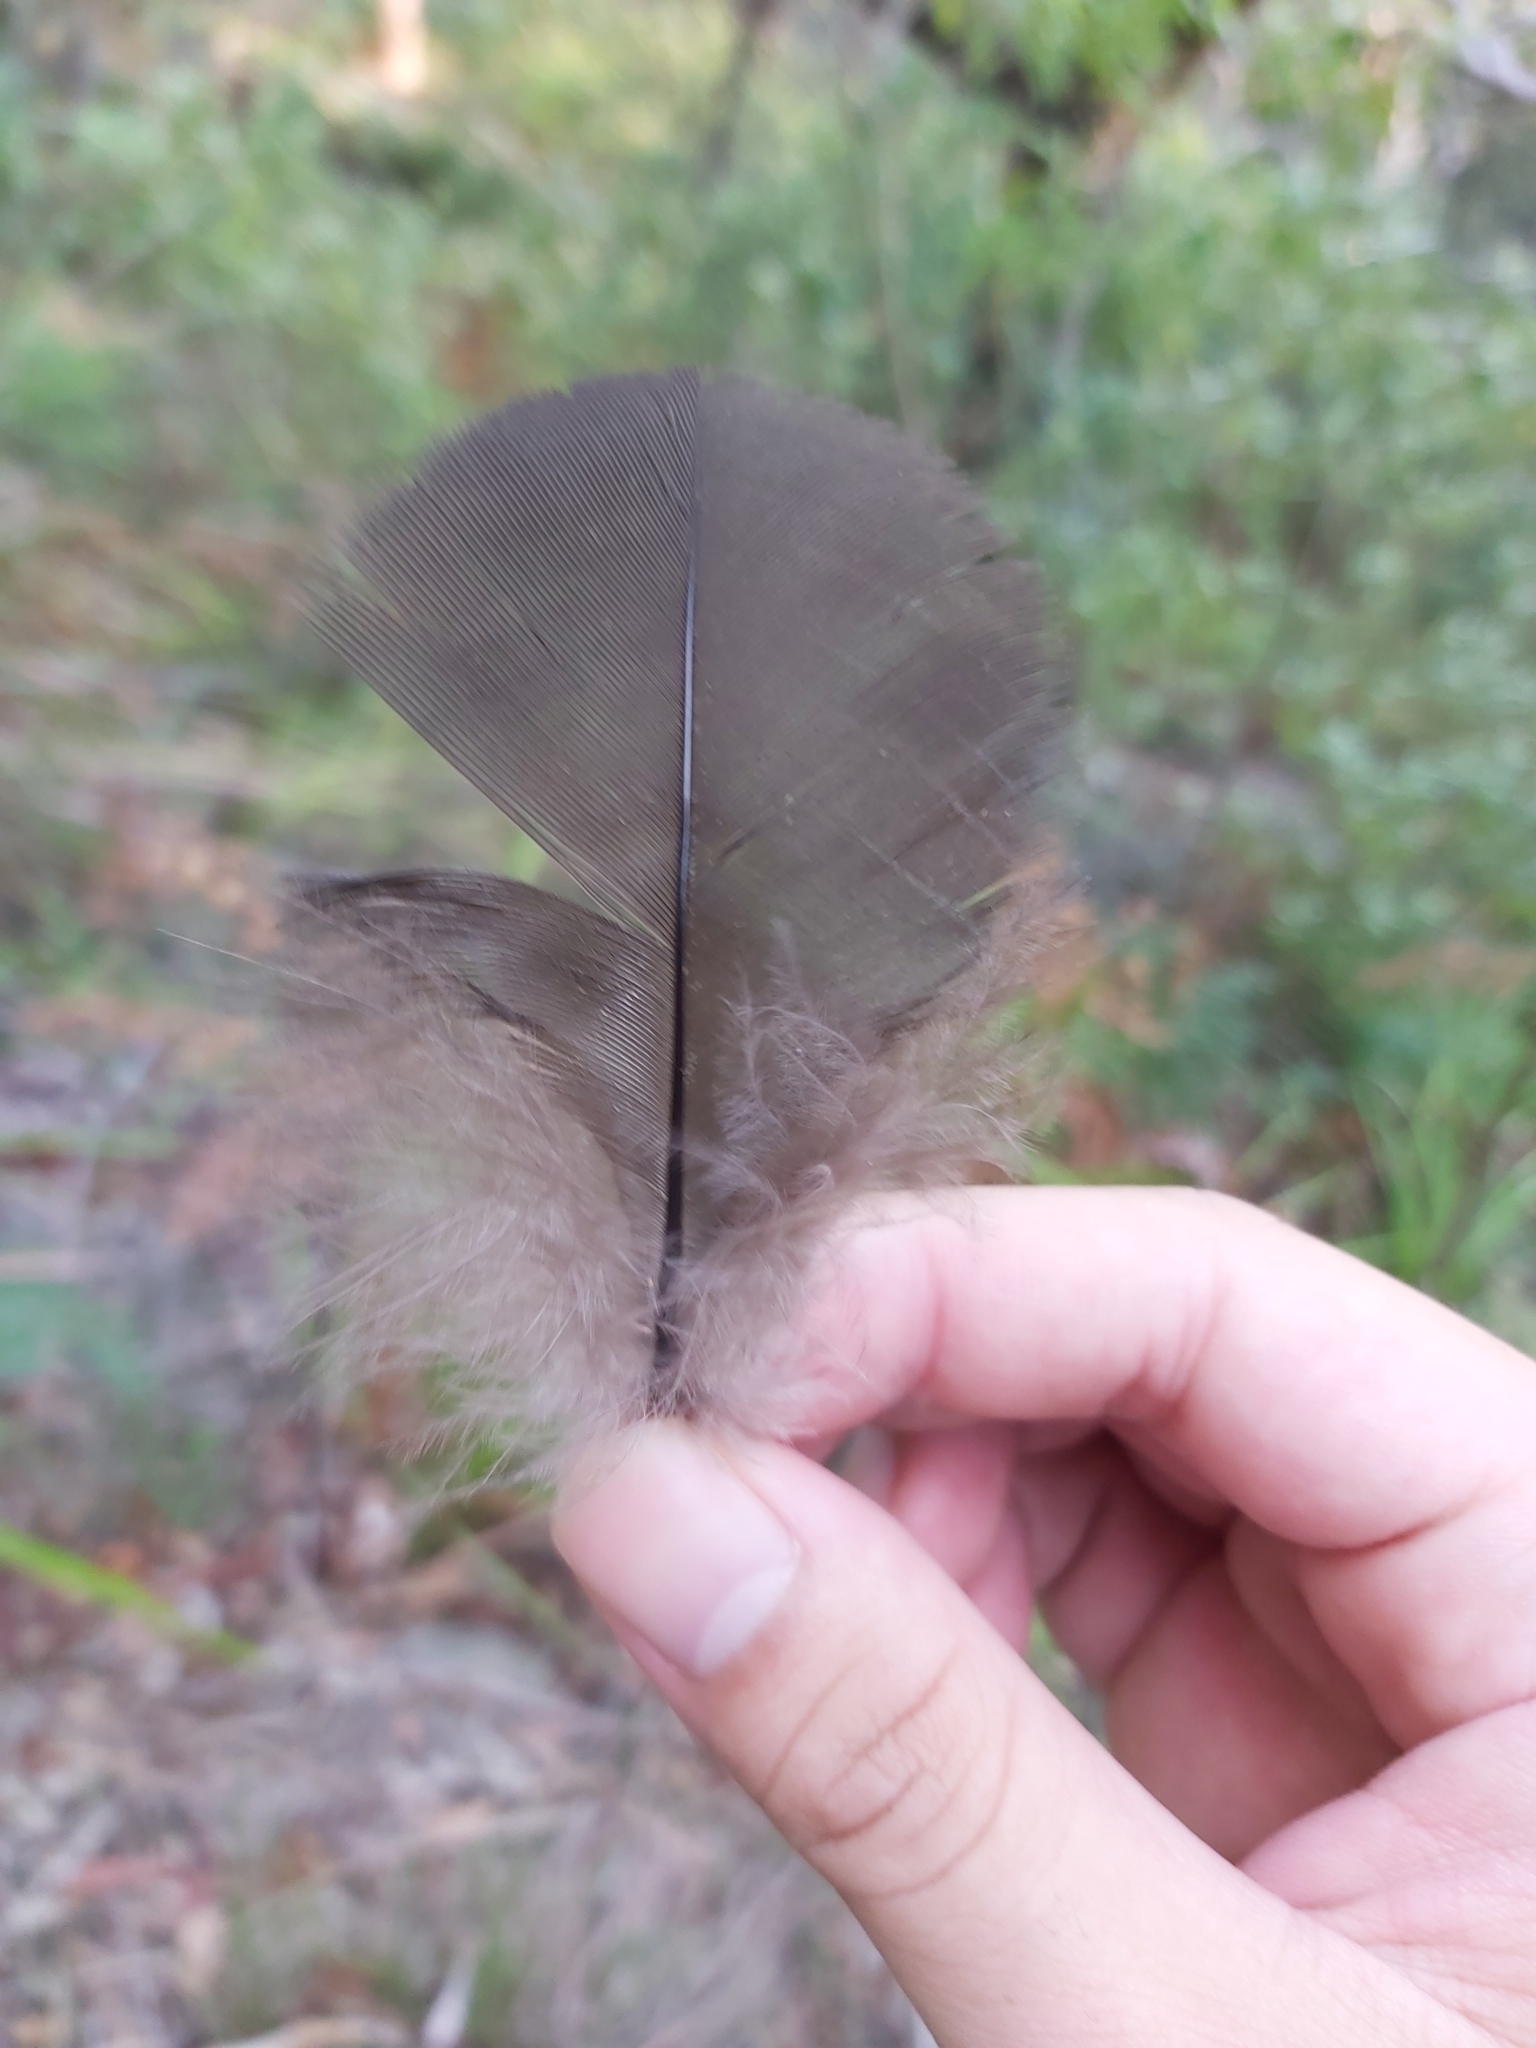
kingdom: Animalia
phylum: Chordata
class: Aves
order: Galliformes
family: Megapodiidae
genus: Alectura
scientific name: Alectura lathami
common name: Australian brushturkey
